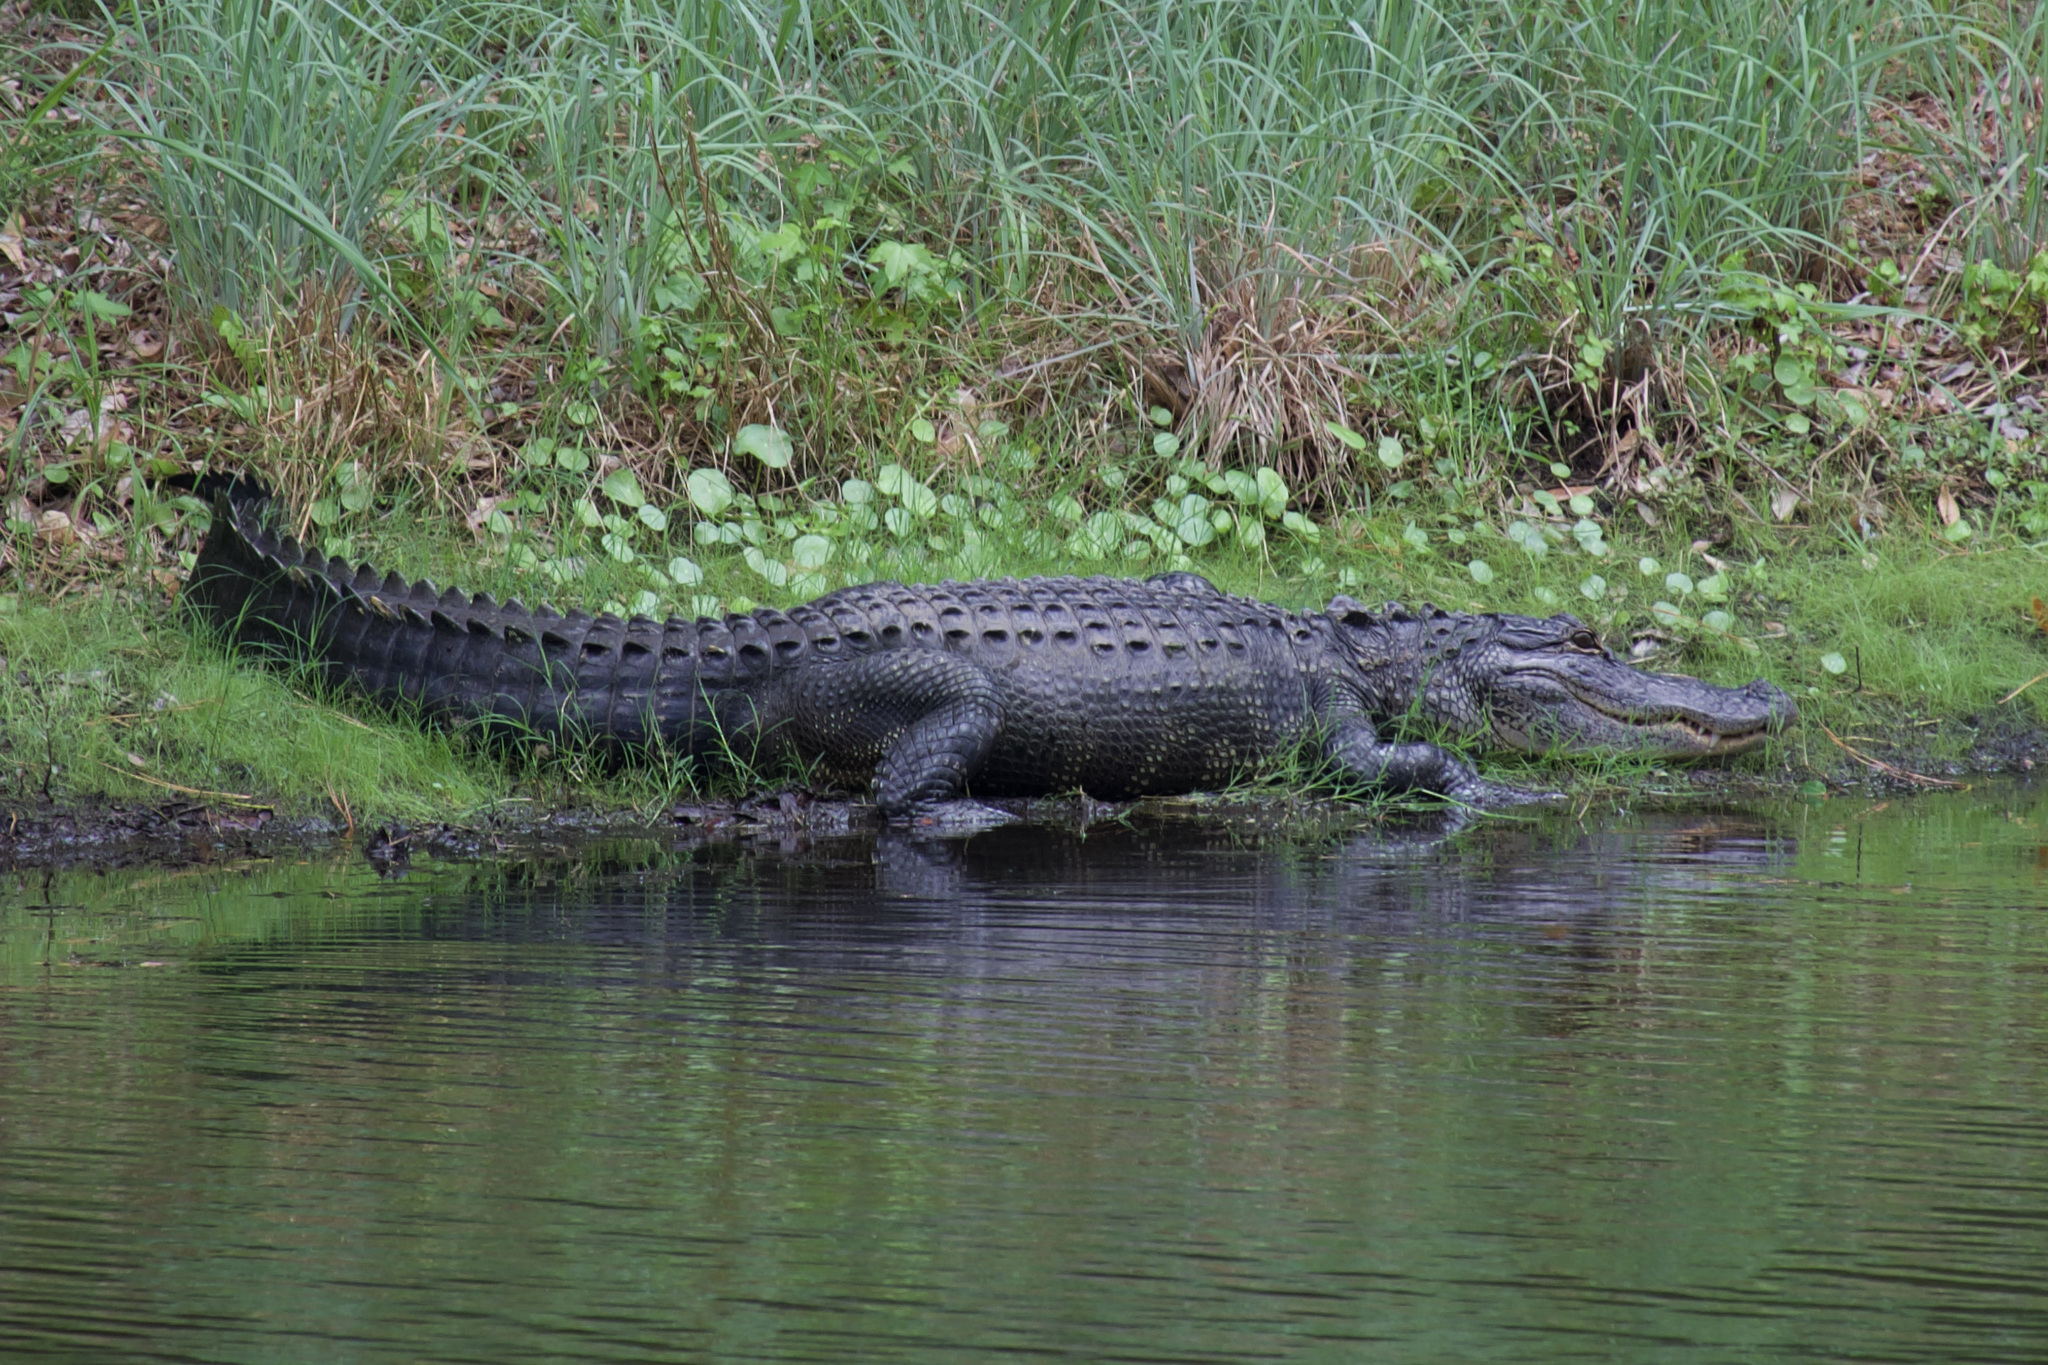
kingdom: Animalia
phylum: Chordata
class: Crocodylia
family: Alligatoridae
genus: Alligator
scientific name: Alligator mississippiensis
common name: American alligator
